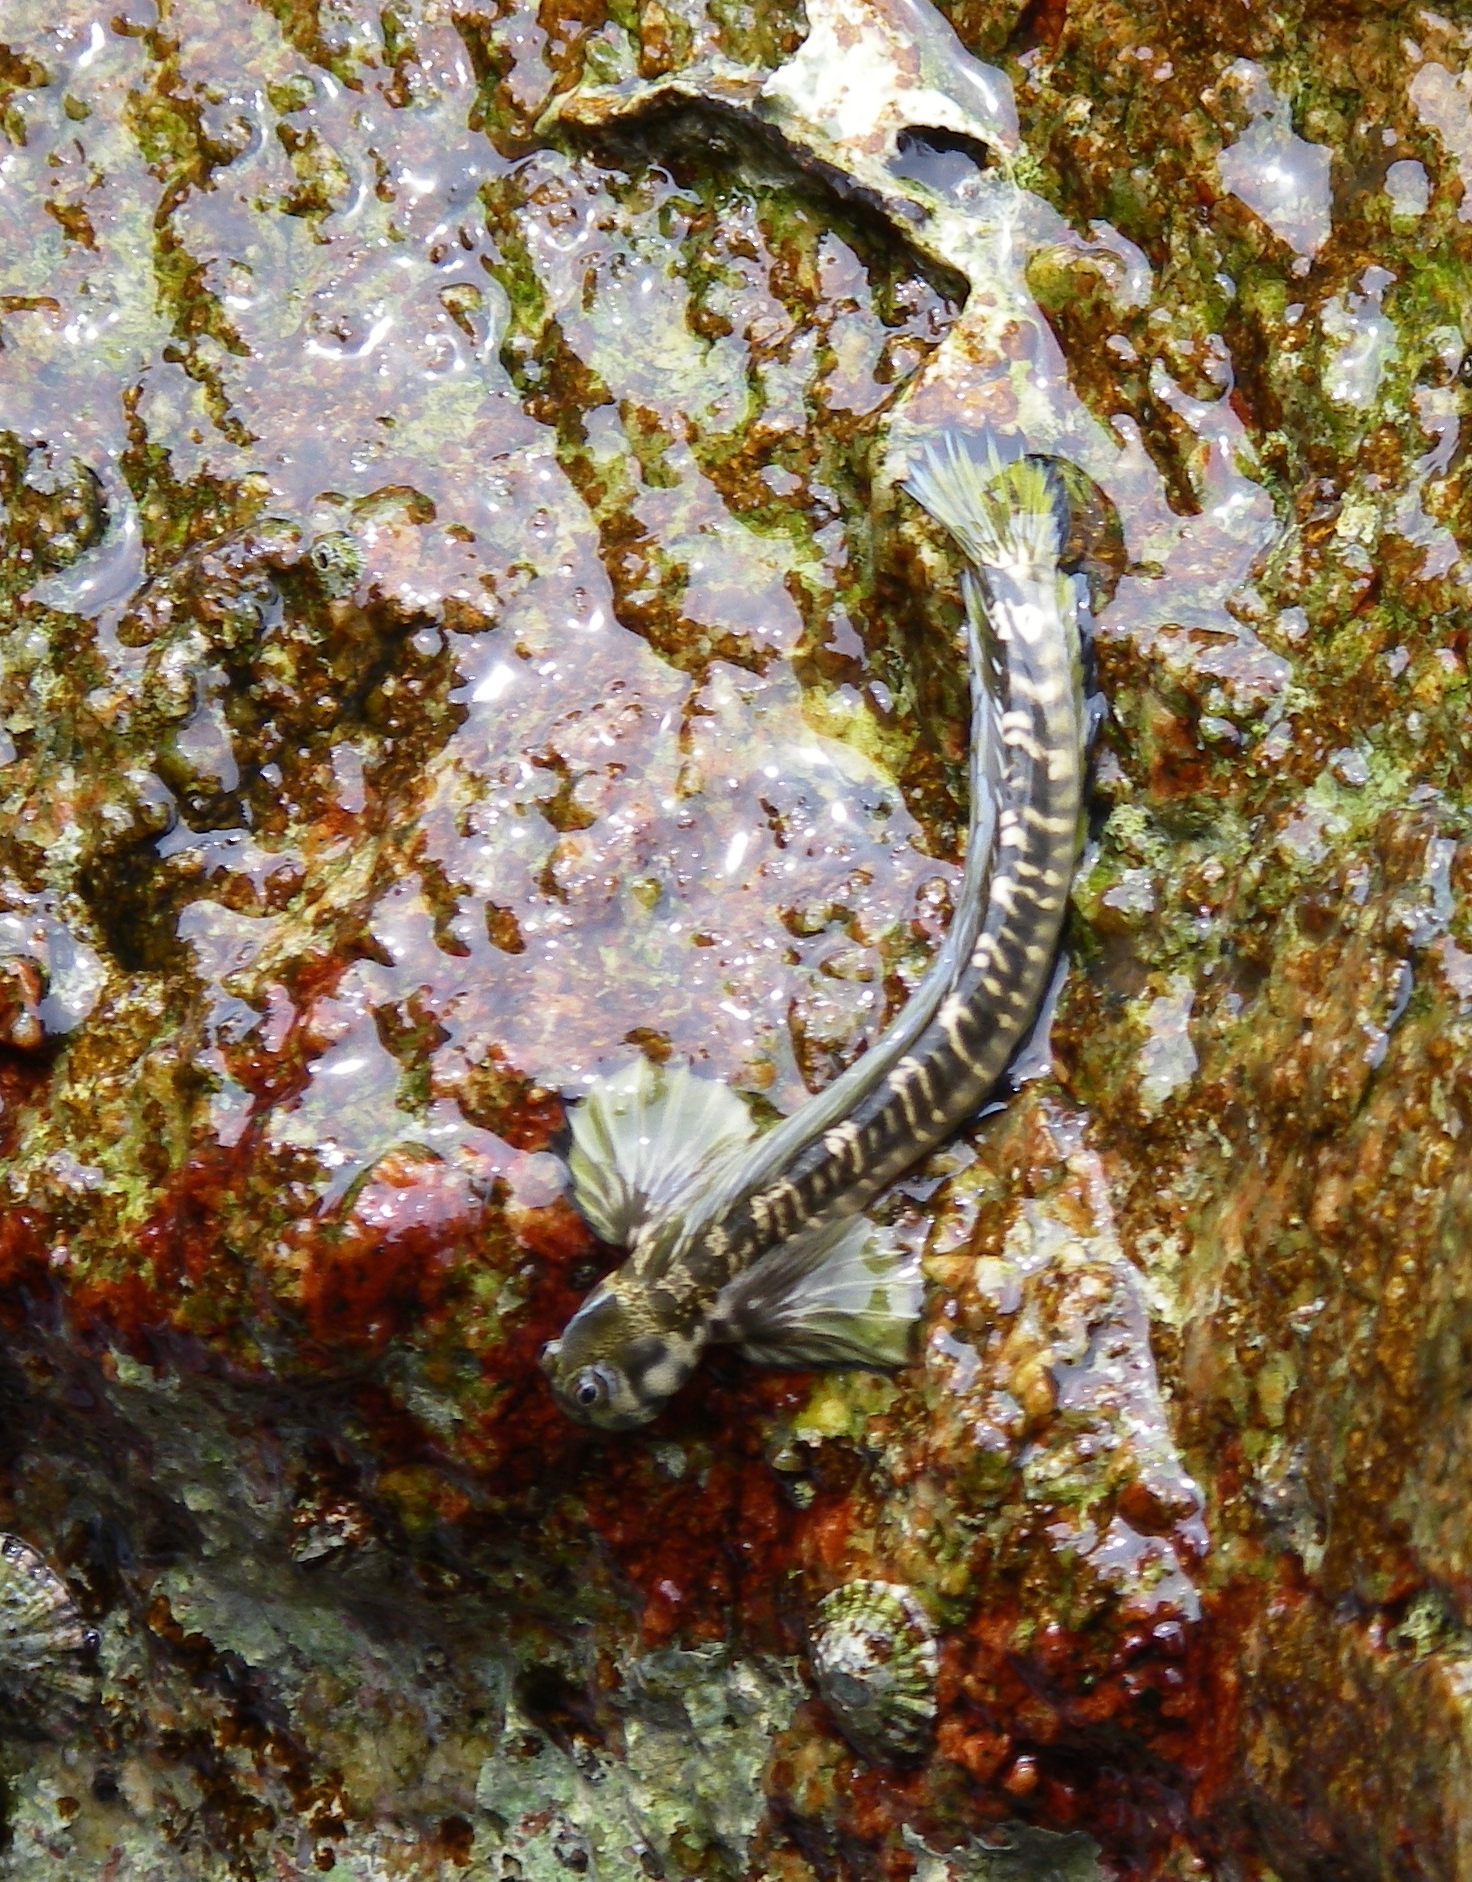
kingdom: Animalia
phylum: Chordata
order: Perciformes
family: Blenniidae
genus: Alticus
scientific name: Alticus saliens
